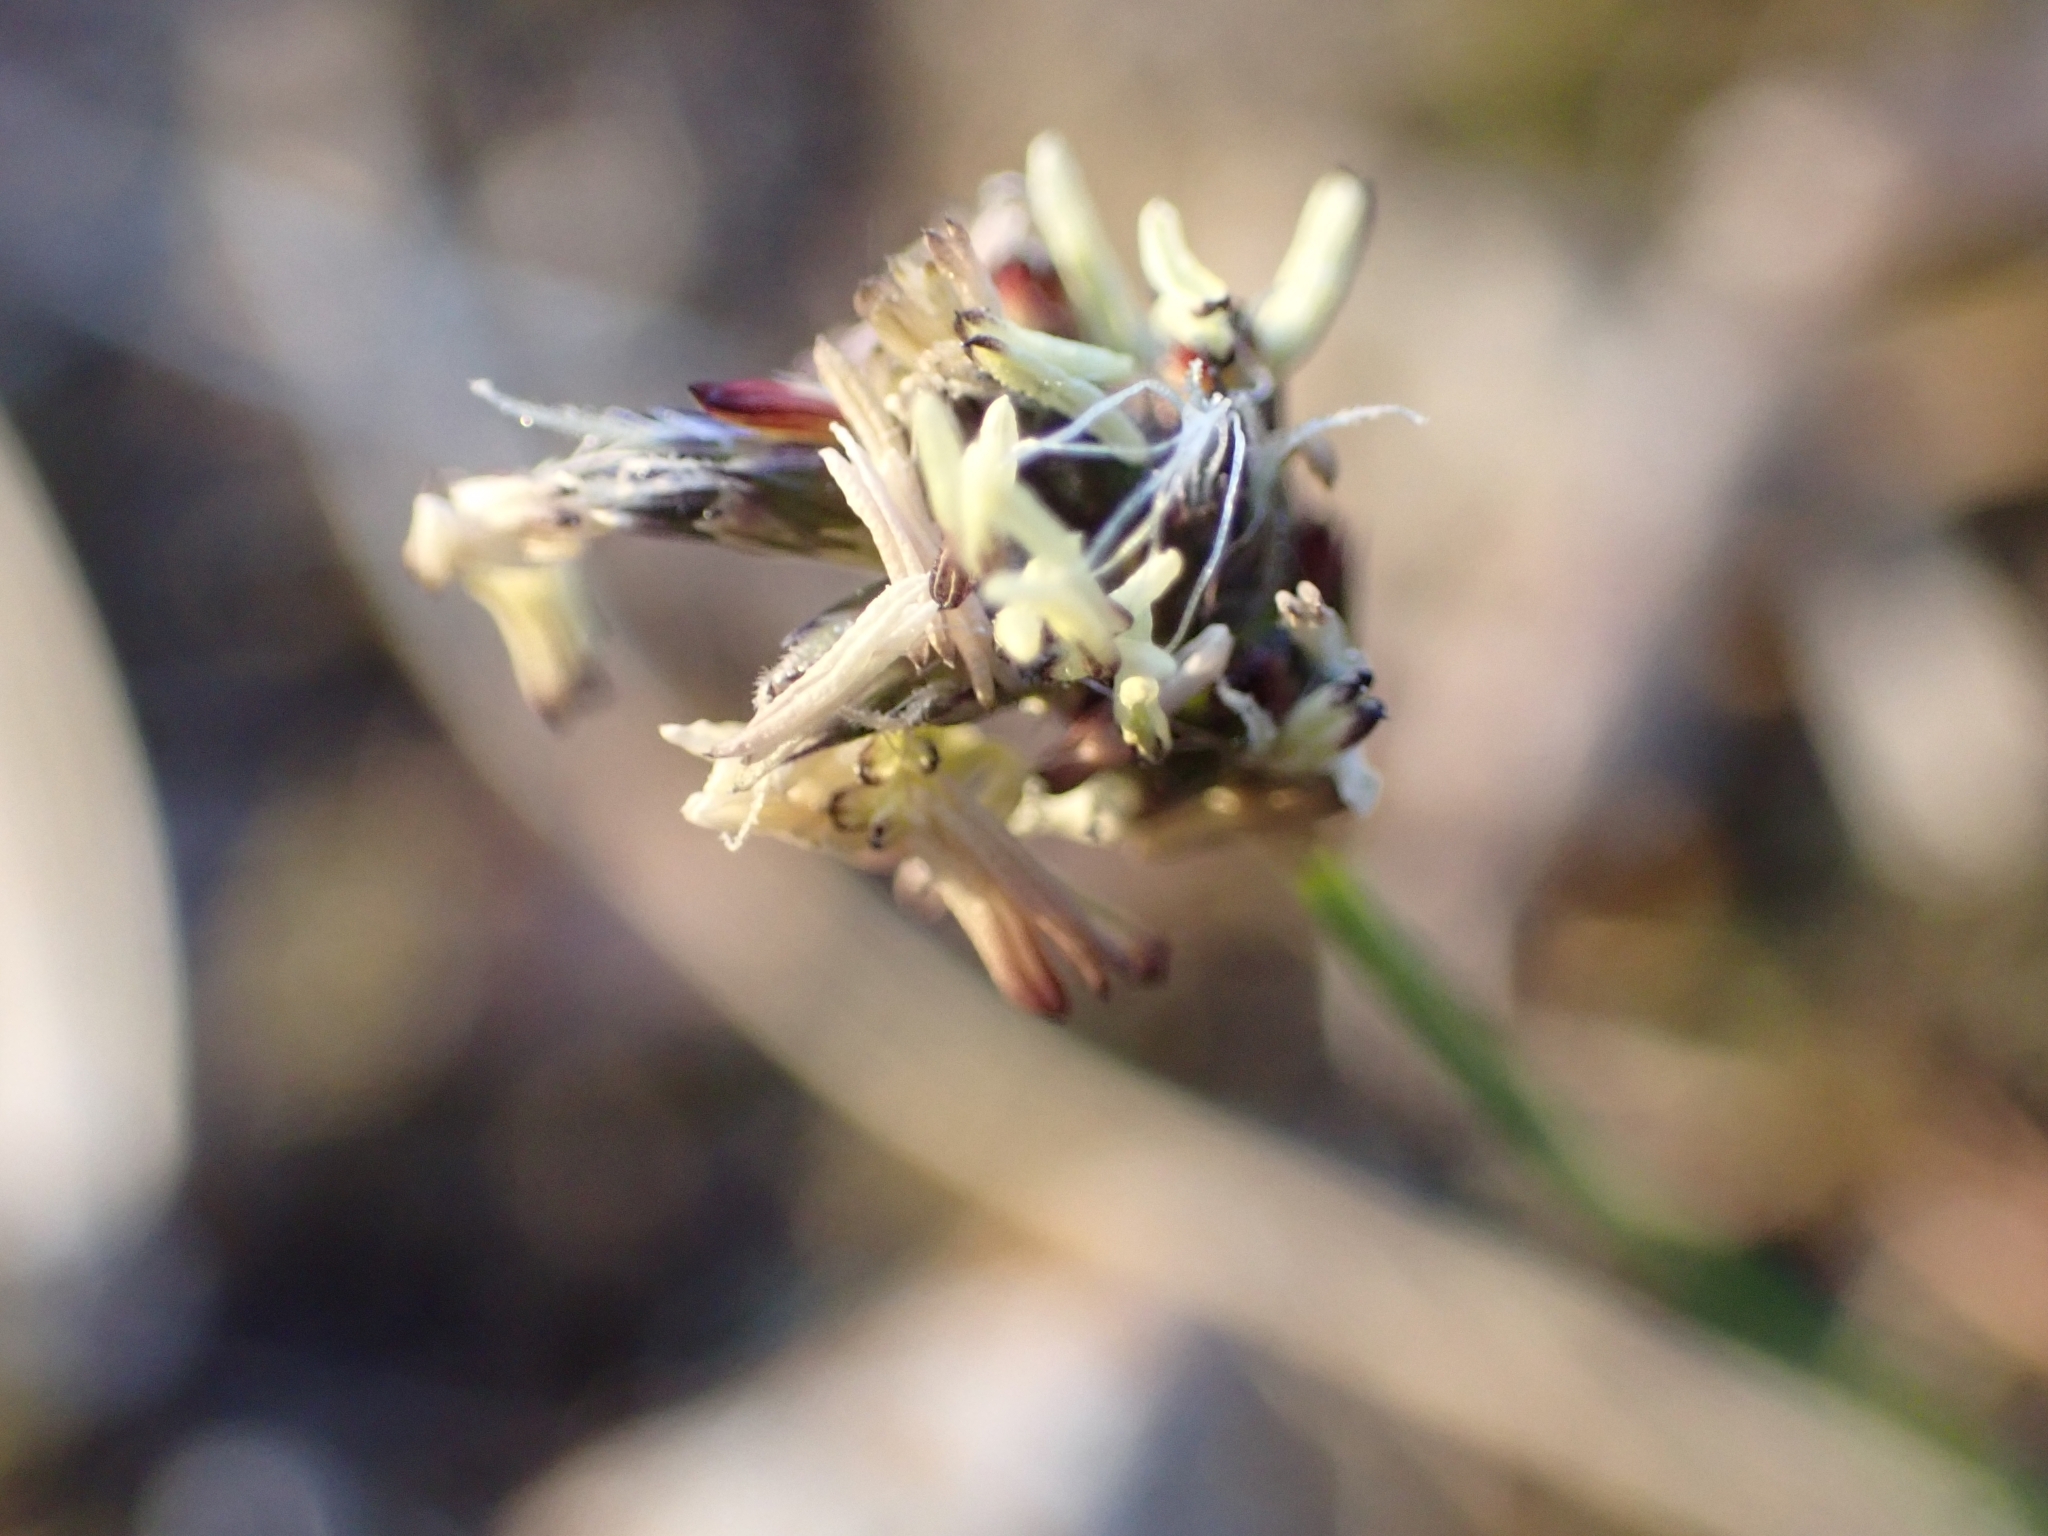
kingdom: Plantae
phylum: Tracheophyta
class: Liliopsida
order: Poales
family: Poaceae
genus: Sesleria
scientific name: Sesleria caerulea
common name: Blue moor-grass
